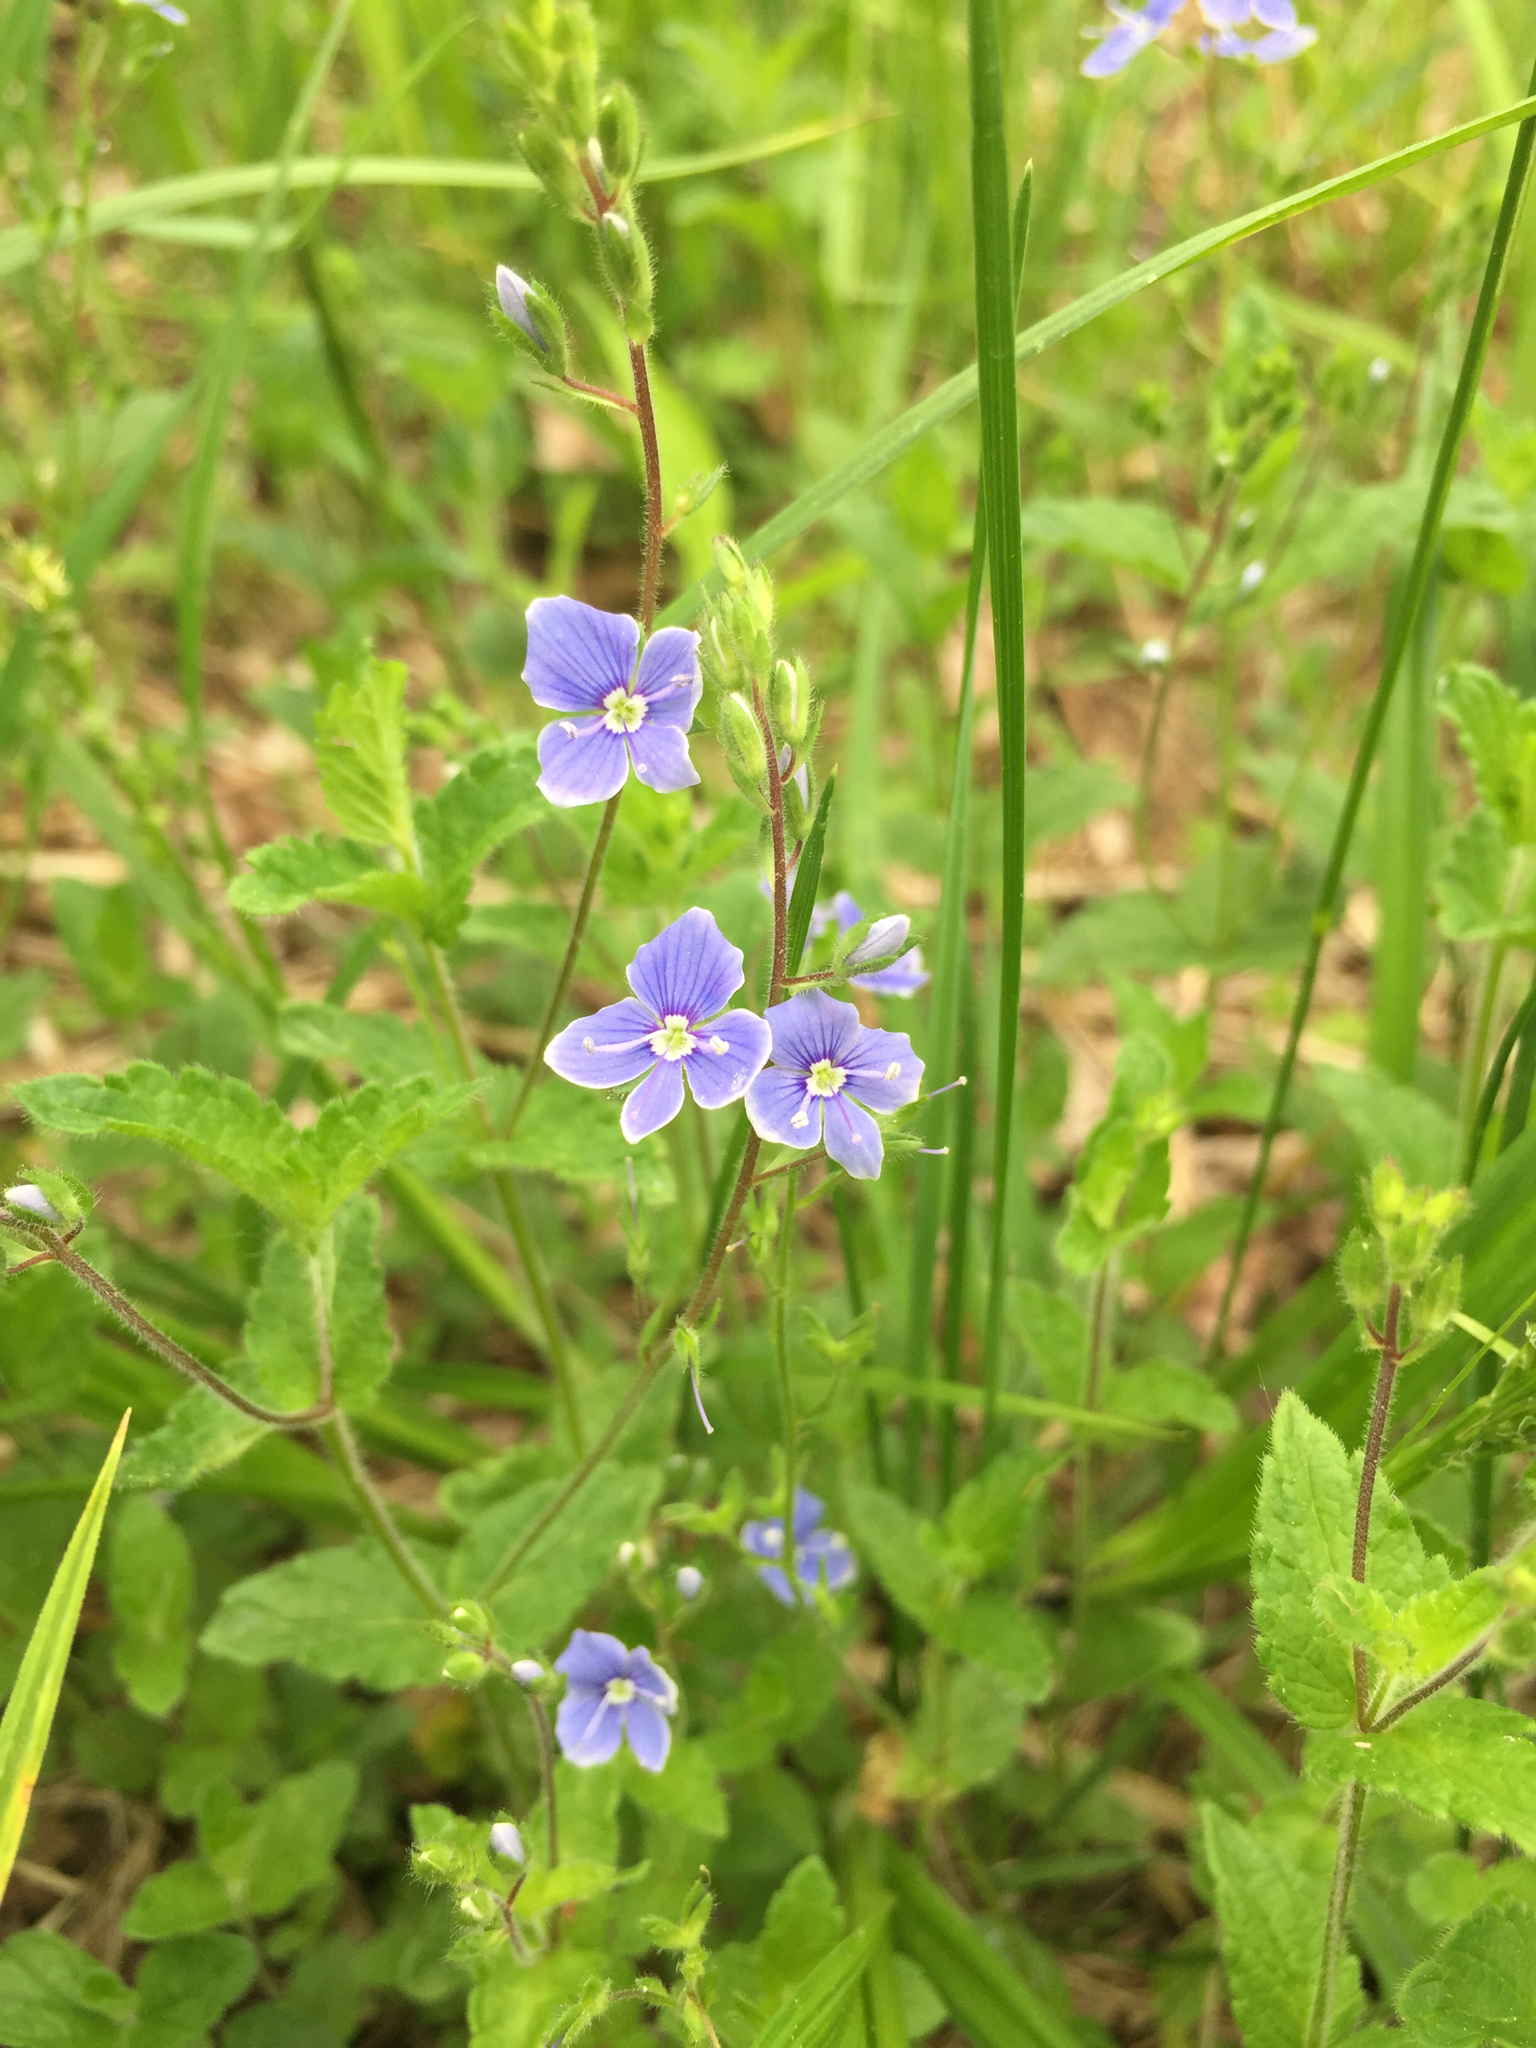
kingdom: Plantae
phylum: Tracheophyta
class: Magnoliopsida
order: Lamiales
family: Plantaginaceae
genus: Veronica
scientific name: Veronica chamaedrys
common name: Germander speedwell
